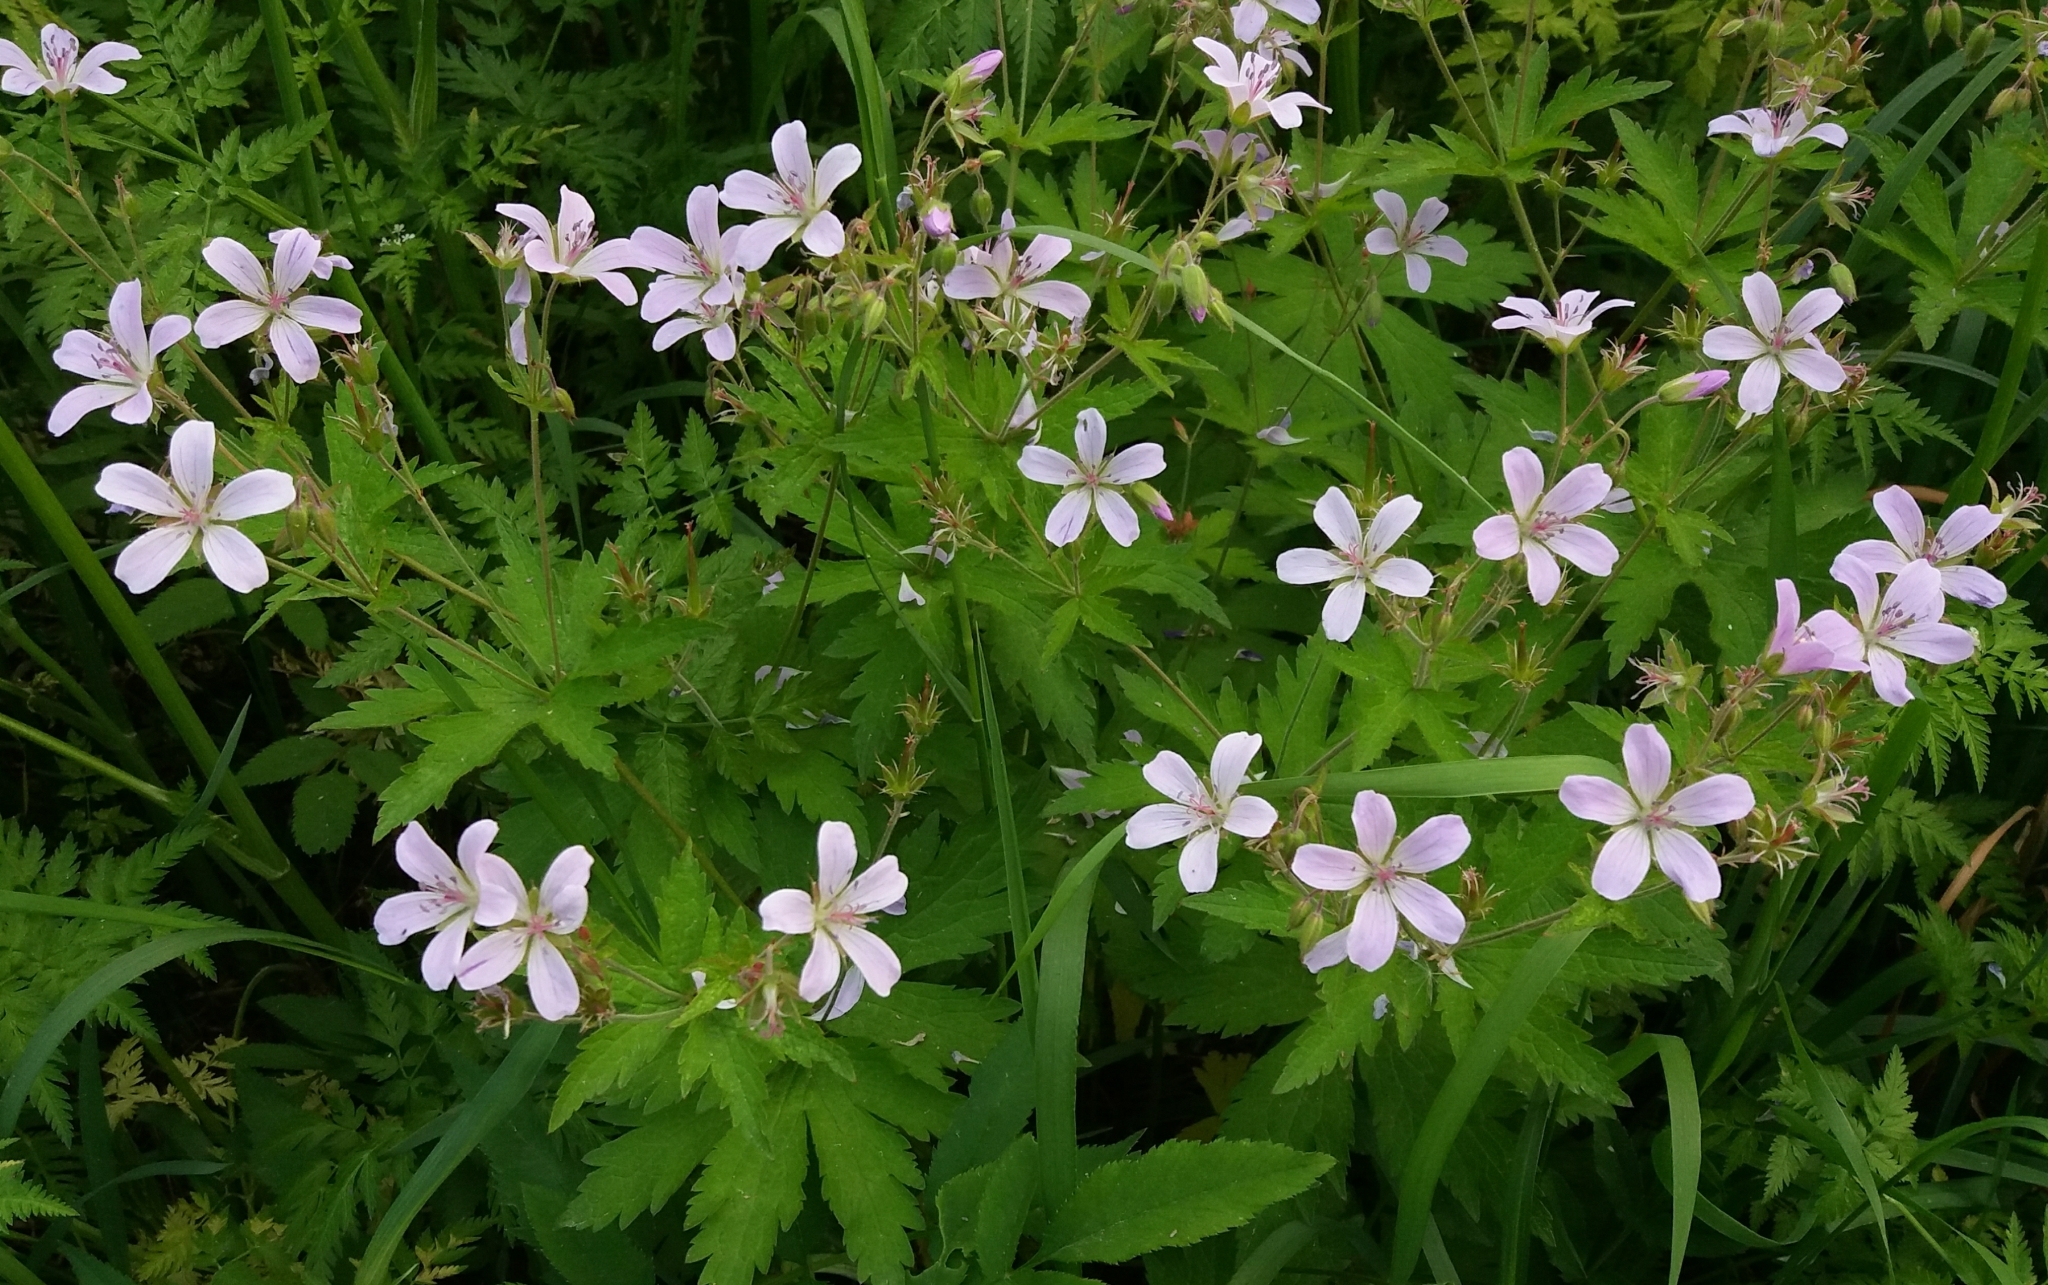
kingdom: Plantae
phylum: Tracheophyta
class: Magnoliopsida
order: Geraniales
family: Geraniaceae
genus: Geranium
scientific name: Geranium sylvaticum
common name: Wood crane's-bill
